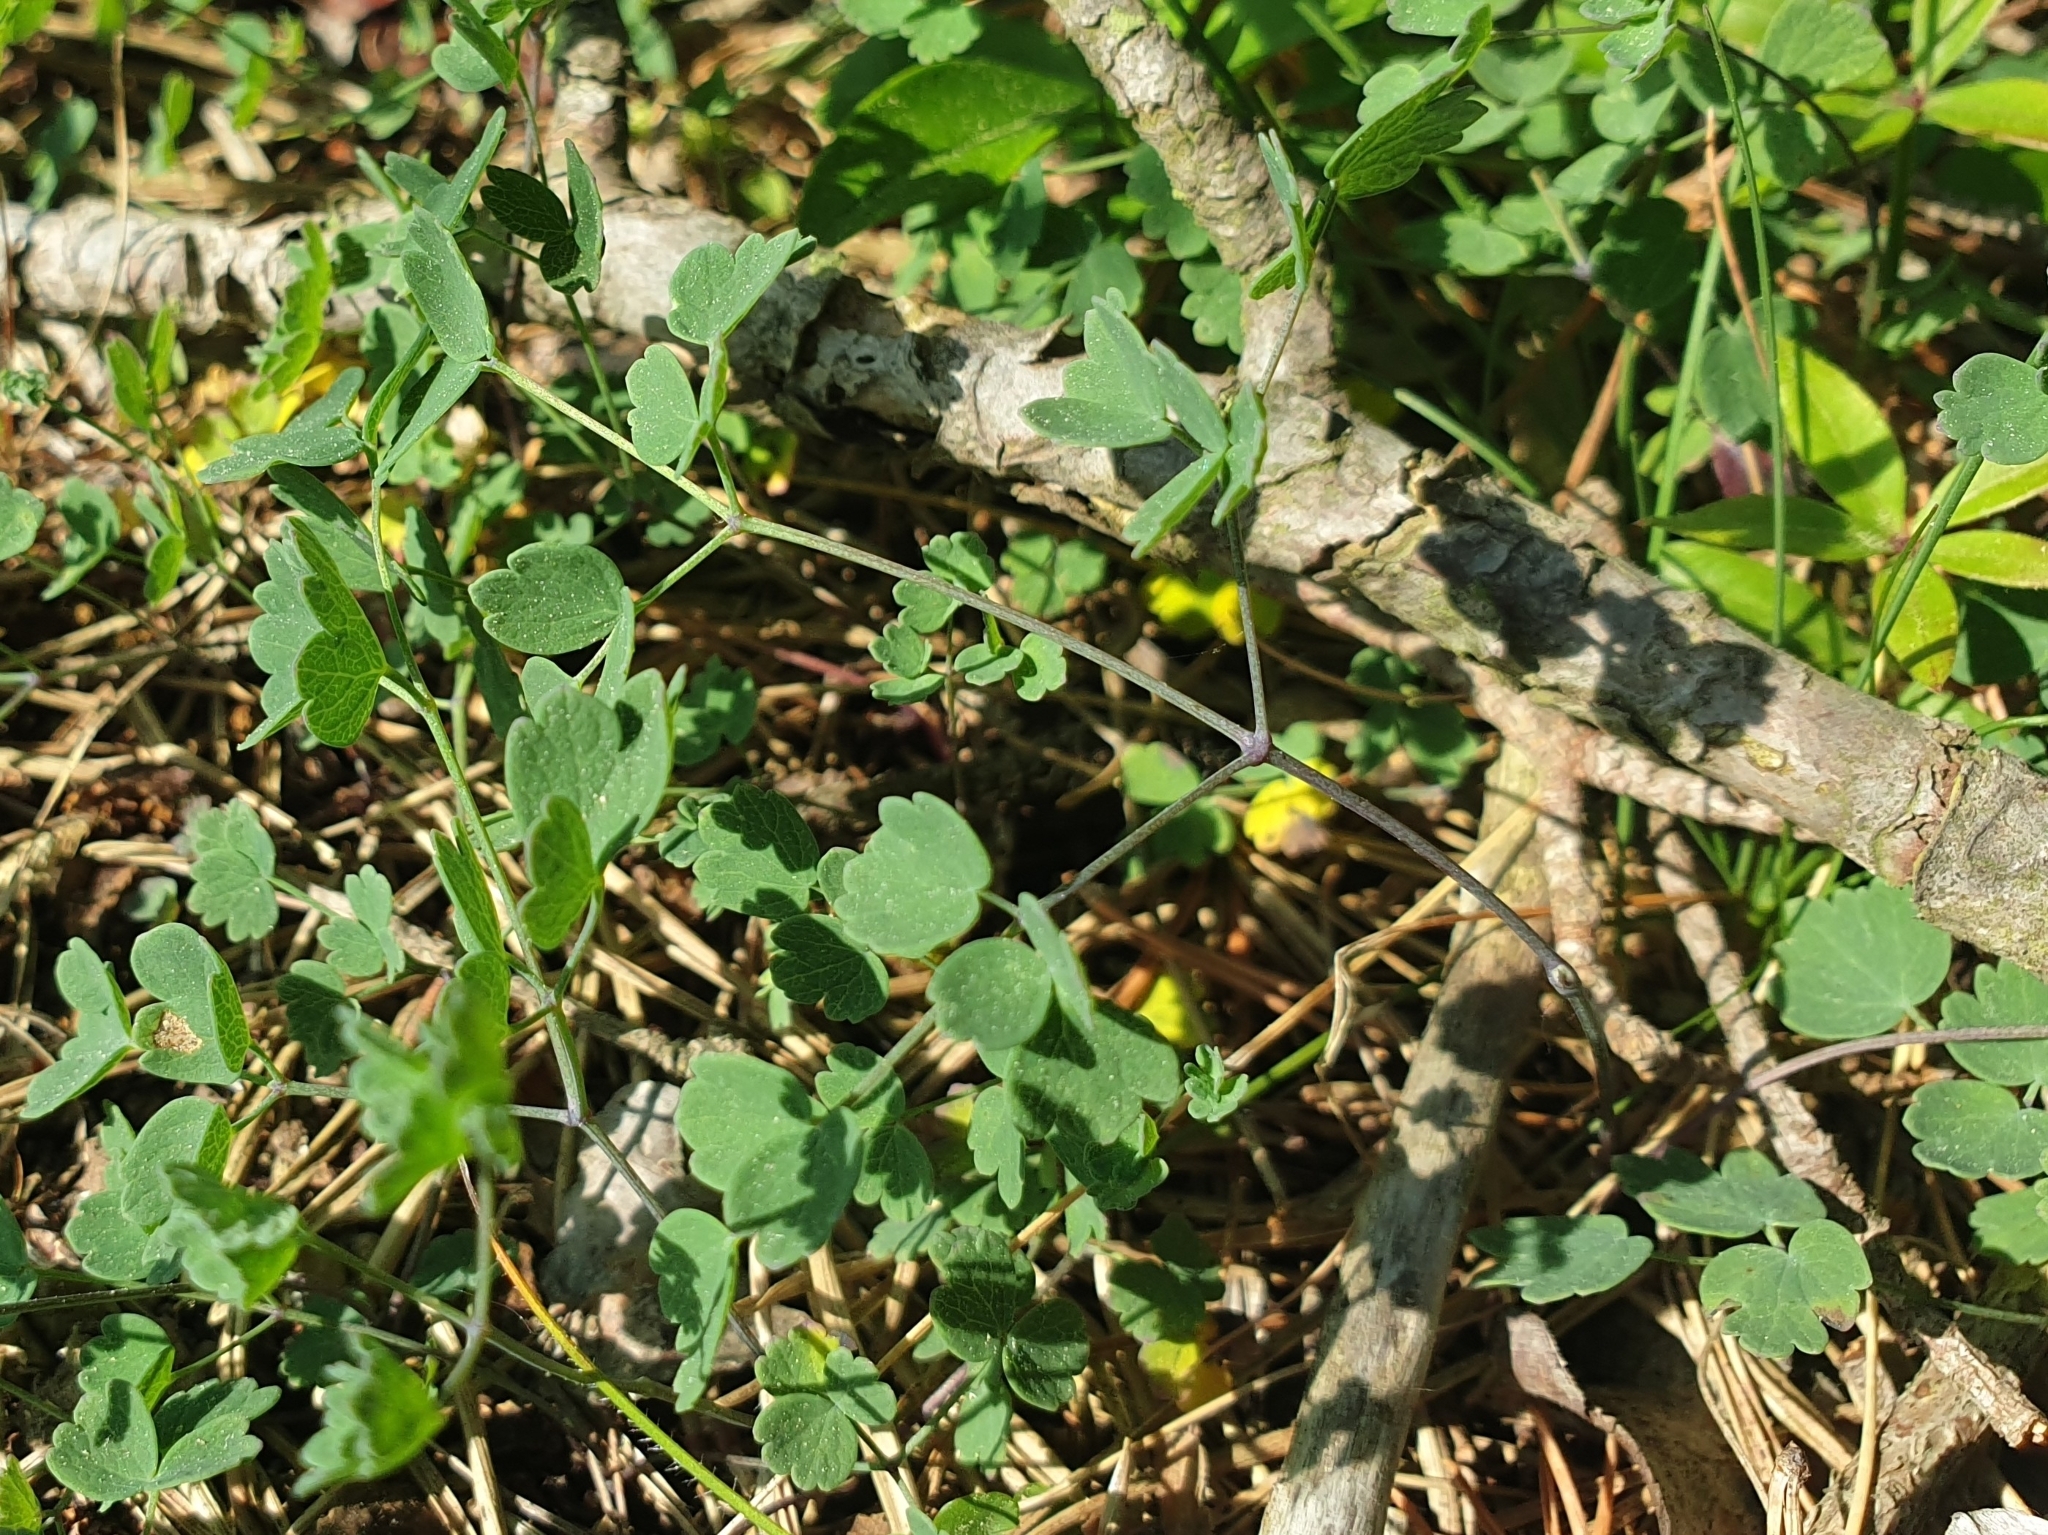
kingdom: Plantae
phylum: Tracheophyta
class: Magnoliopsida
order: Ranunculales
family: Ranunculaceae
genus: Thalictrum
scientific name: Thalictrum minus
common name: Lesser meadow-rue
